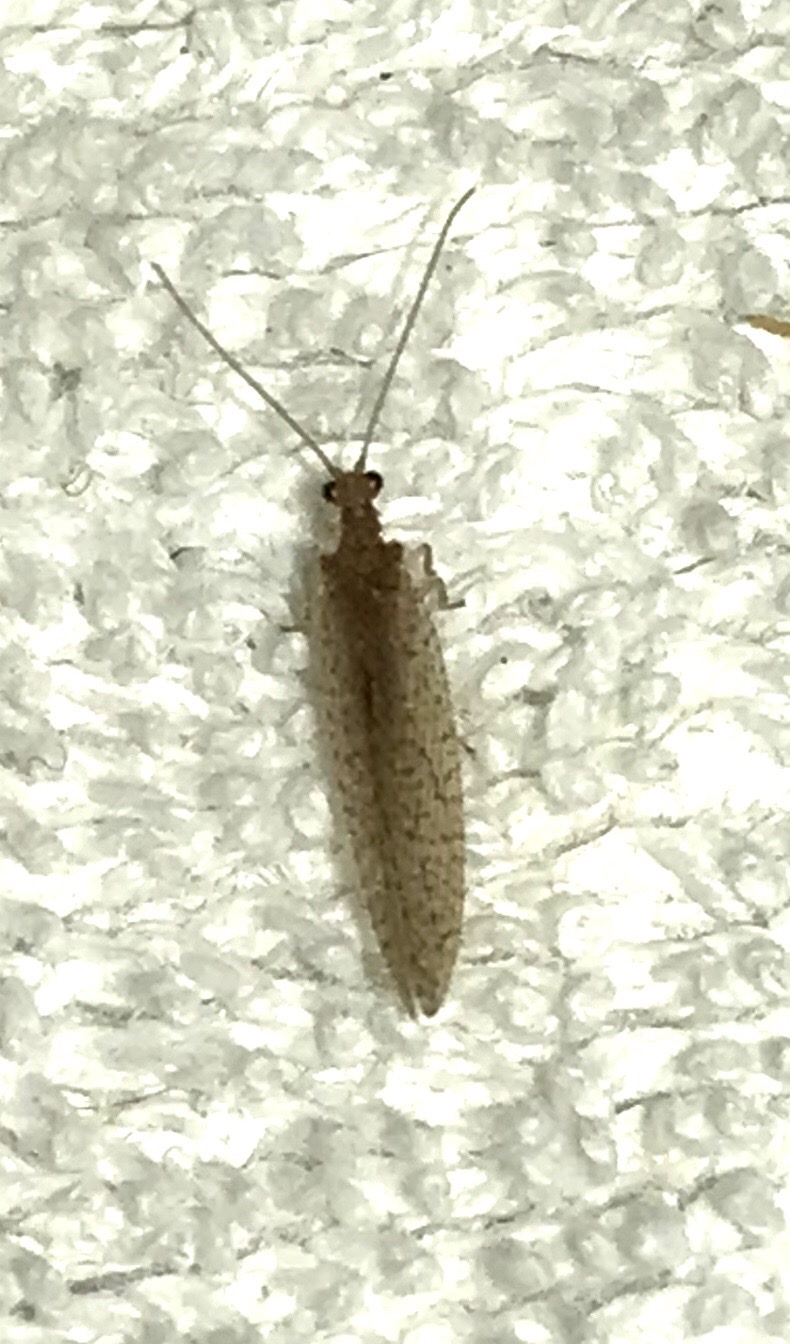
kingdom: Animalia
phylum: Arthropoda
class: Insecta
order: Neuroptera
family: Hemerobiidae
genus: Micromus
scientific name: Micromus posticus
